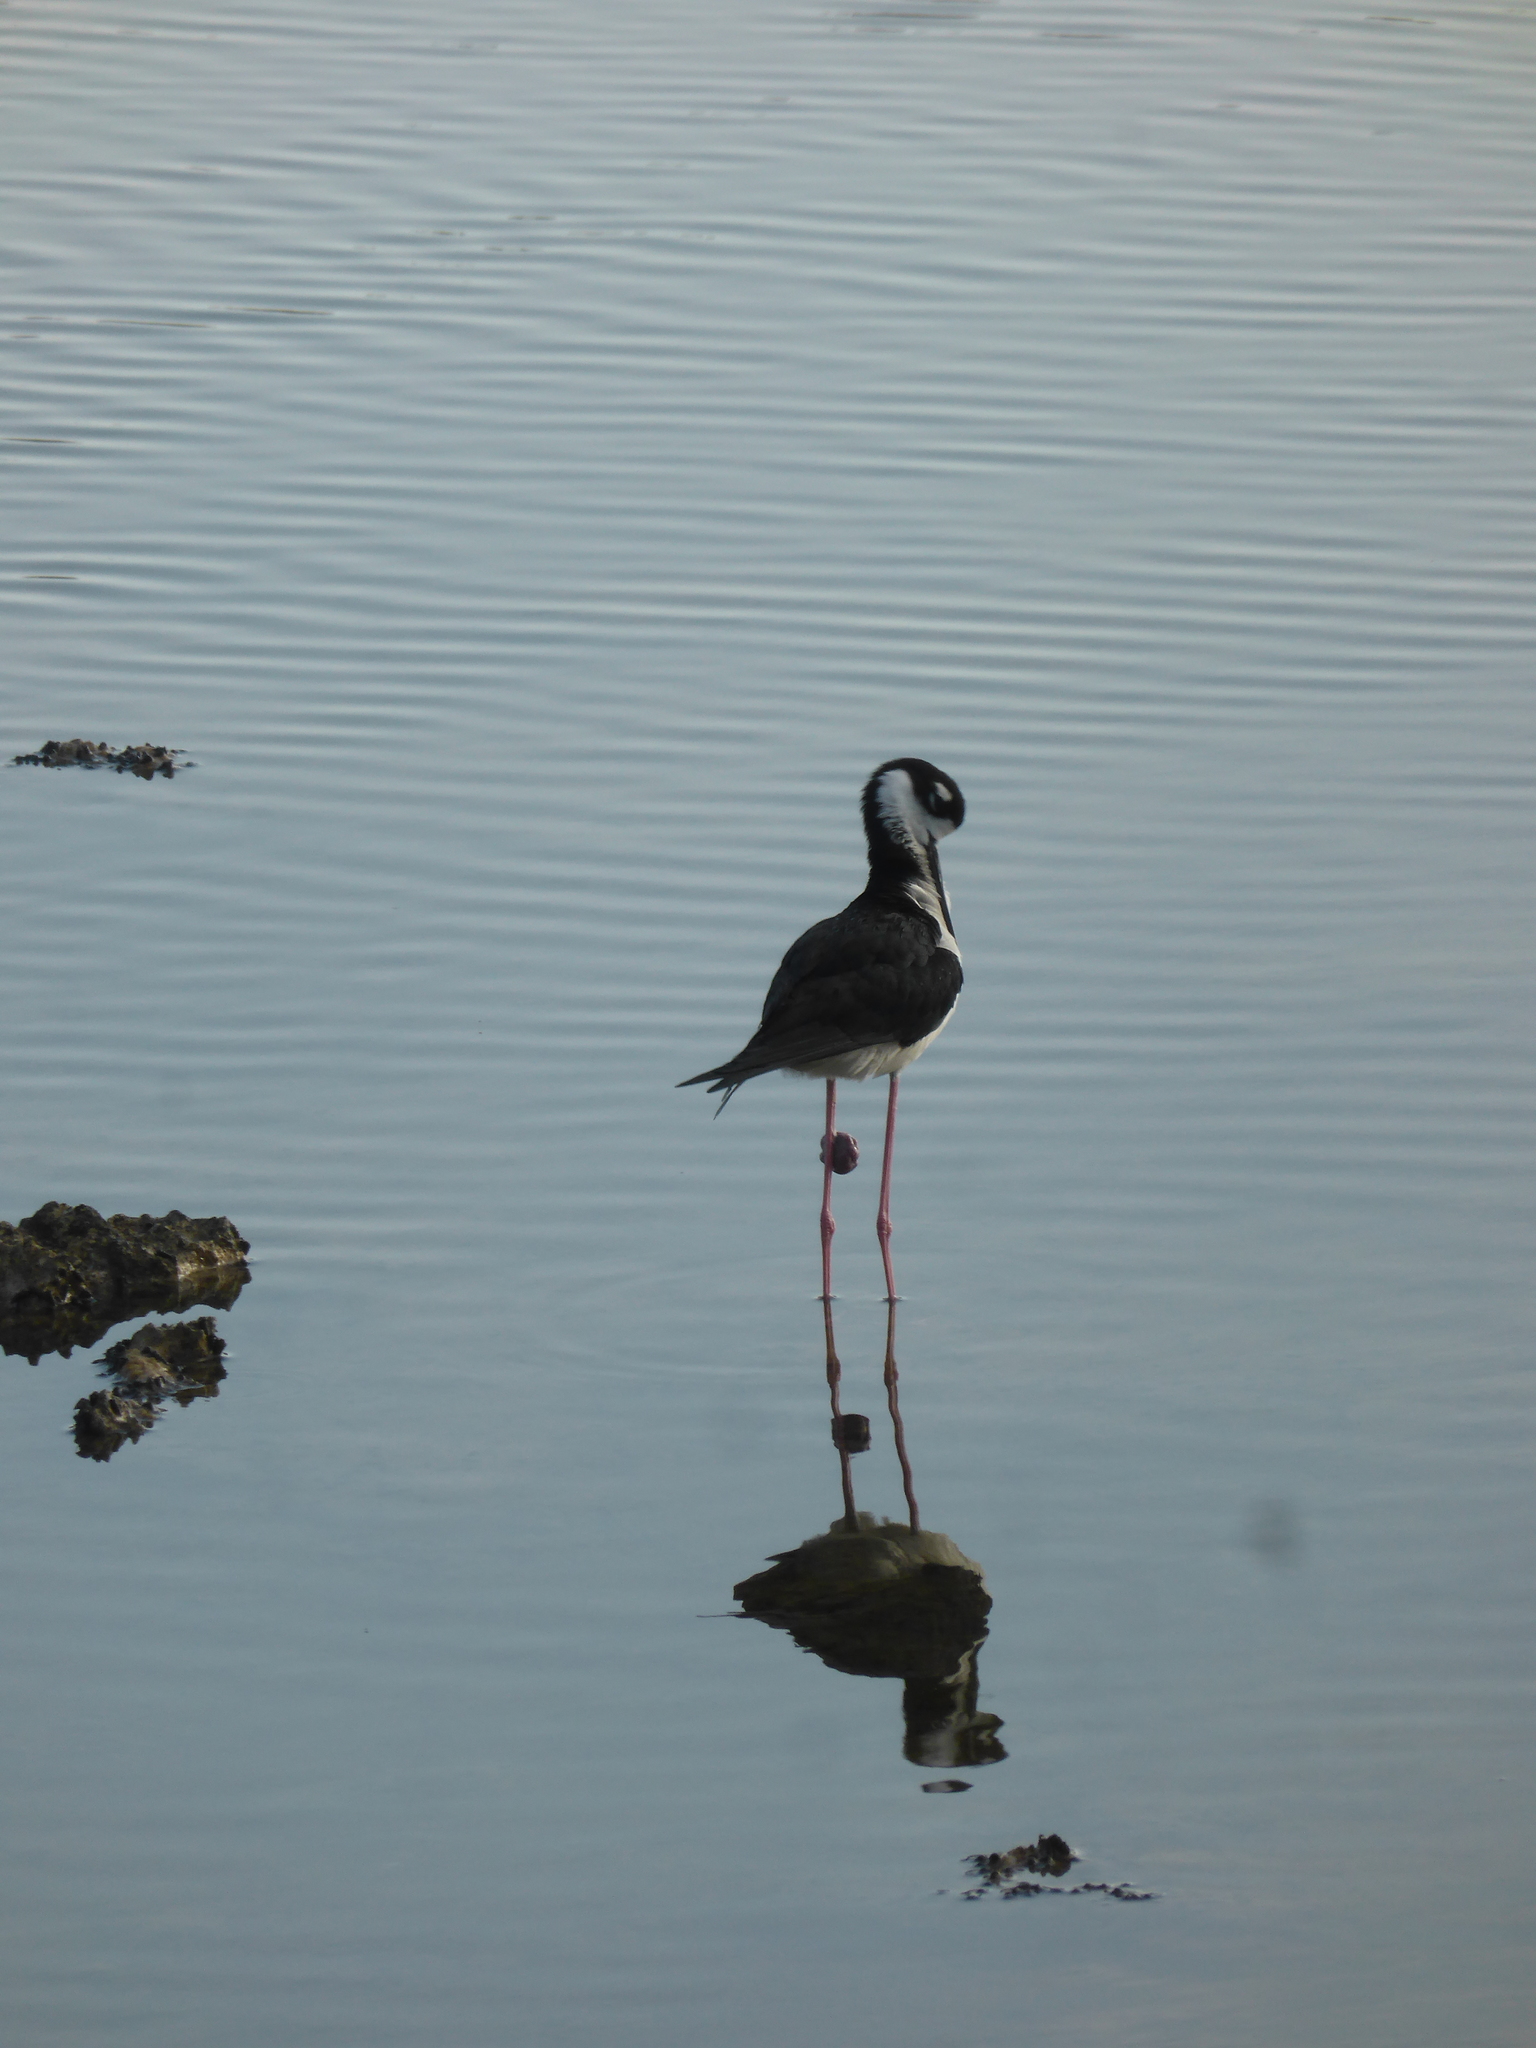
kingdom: Animalia
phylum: Chordata
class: Aves
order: Charadriiformes
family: Recurvirostridae
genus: Himantopus
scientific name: Himantopus mexicanus
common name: Black-necked stilt
